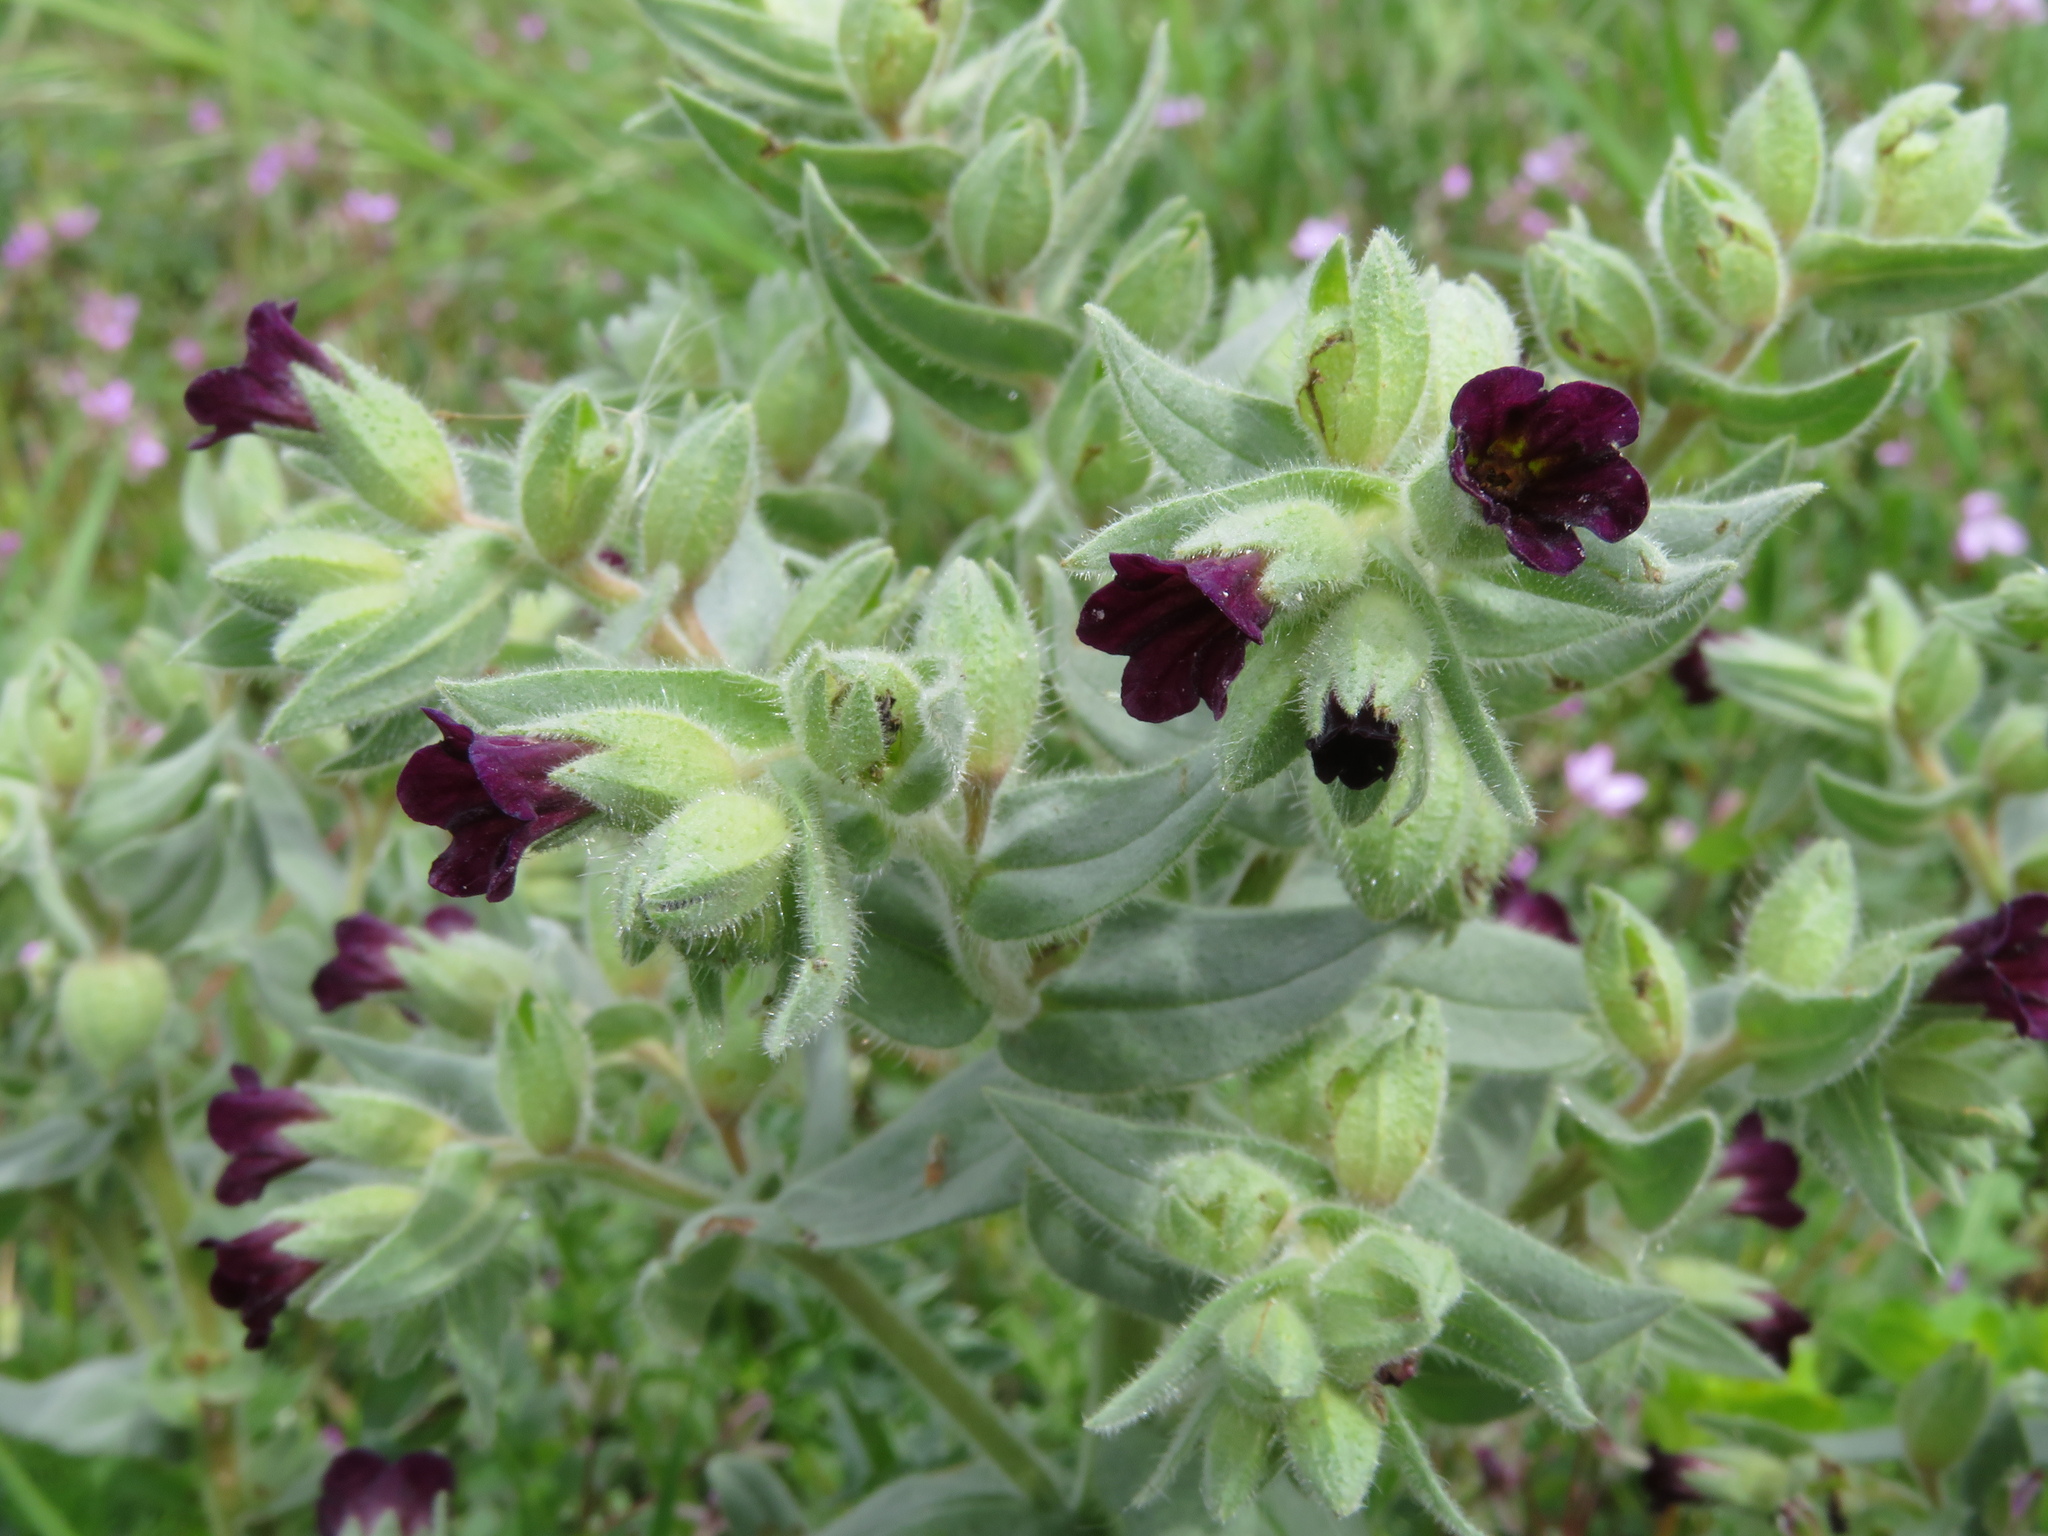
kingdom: Plantae
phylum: Tracheophyta
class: Magnoliopsida
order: Boraginales
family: Boraginaceae
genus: Nonea
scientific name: Nonea pulla
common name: Brown nonea
